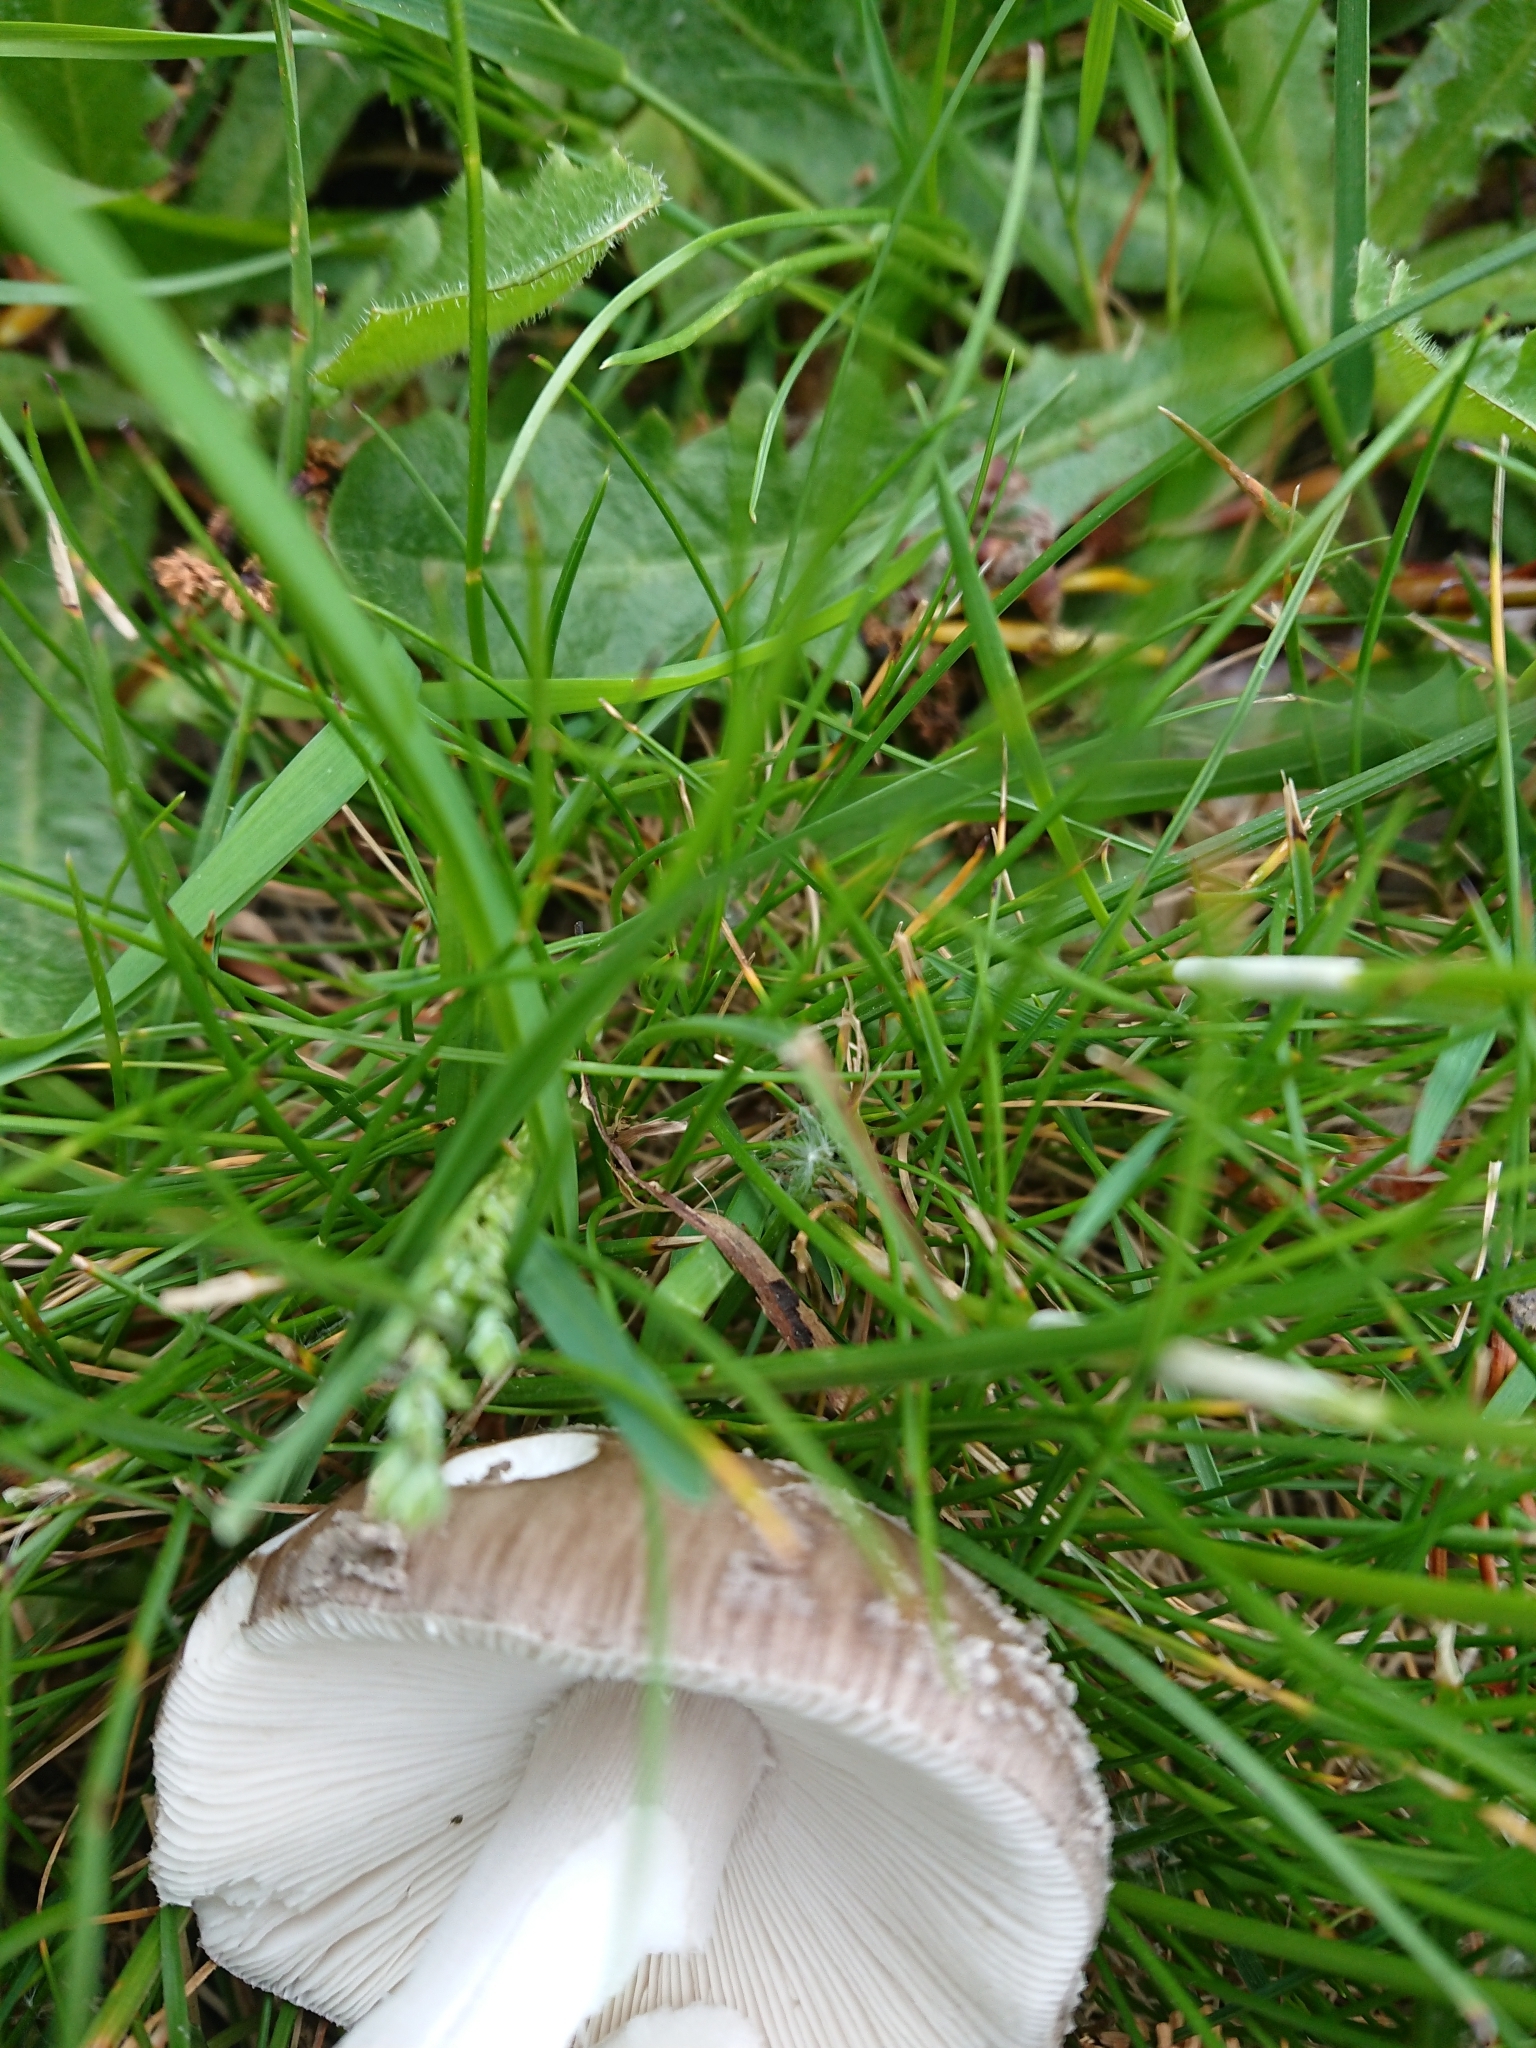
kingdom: Fungi
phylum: Basidiomycota
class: Agaricomycetes
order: Agaricales
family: Amanitaceae
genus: Amanita
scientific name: Amanita excelsa
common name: European false blusher
